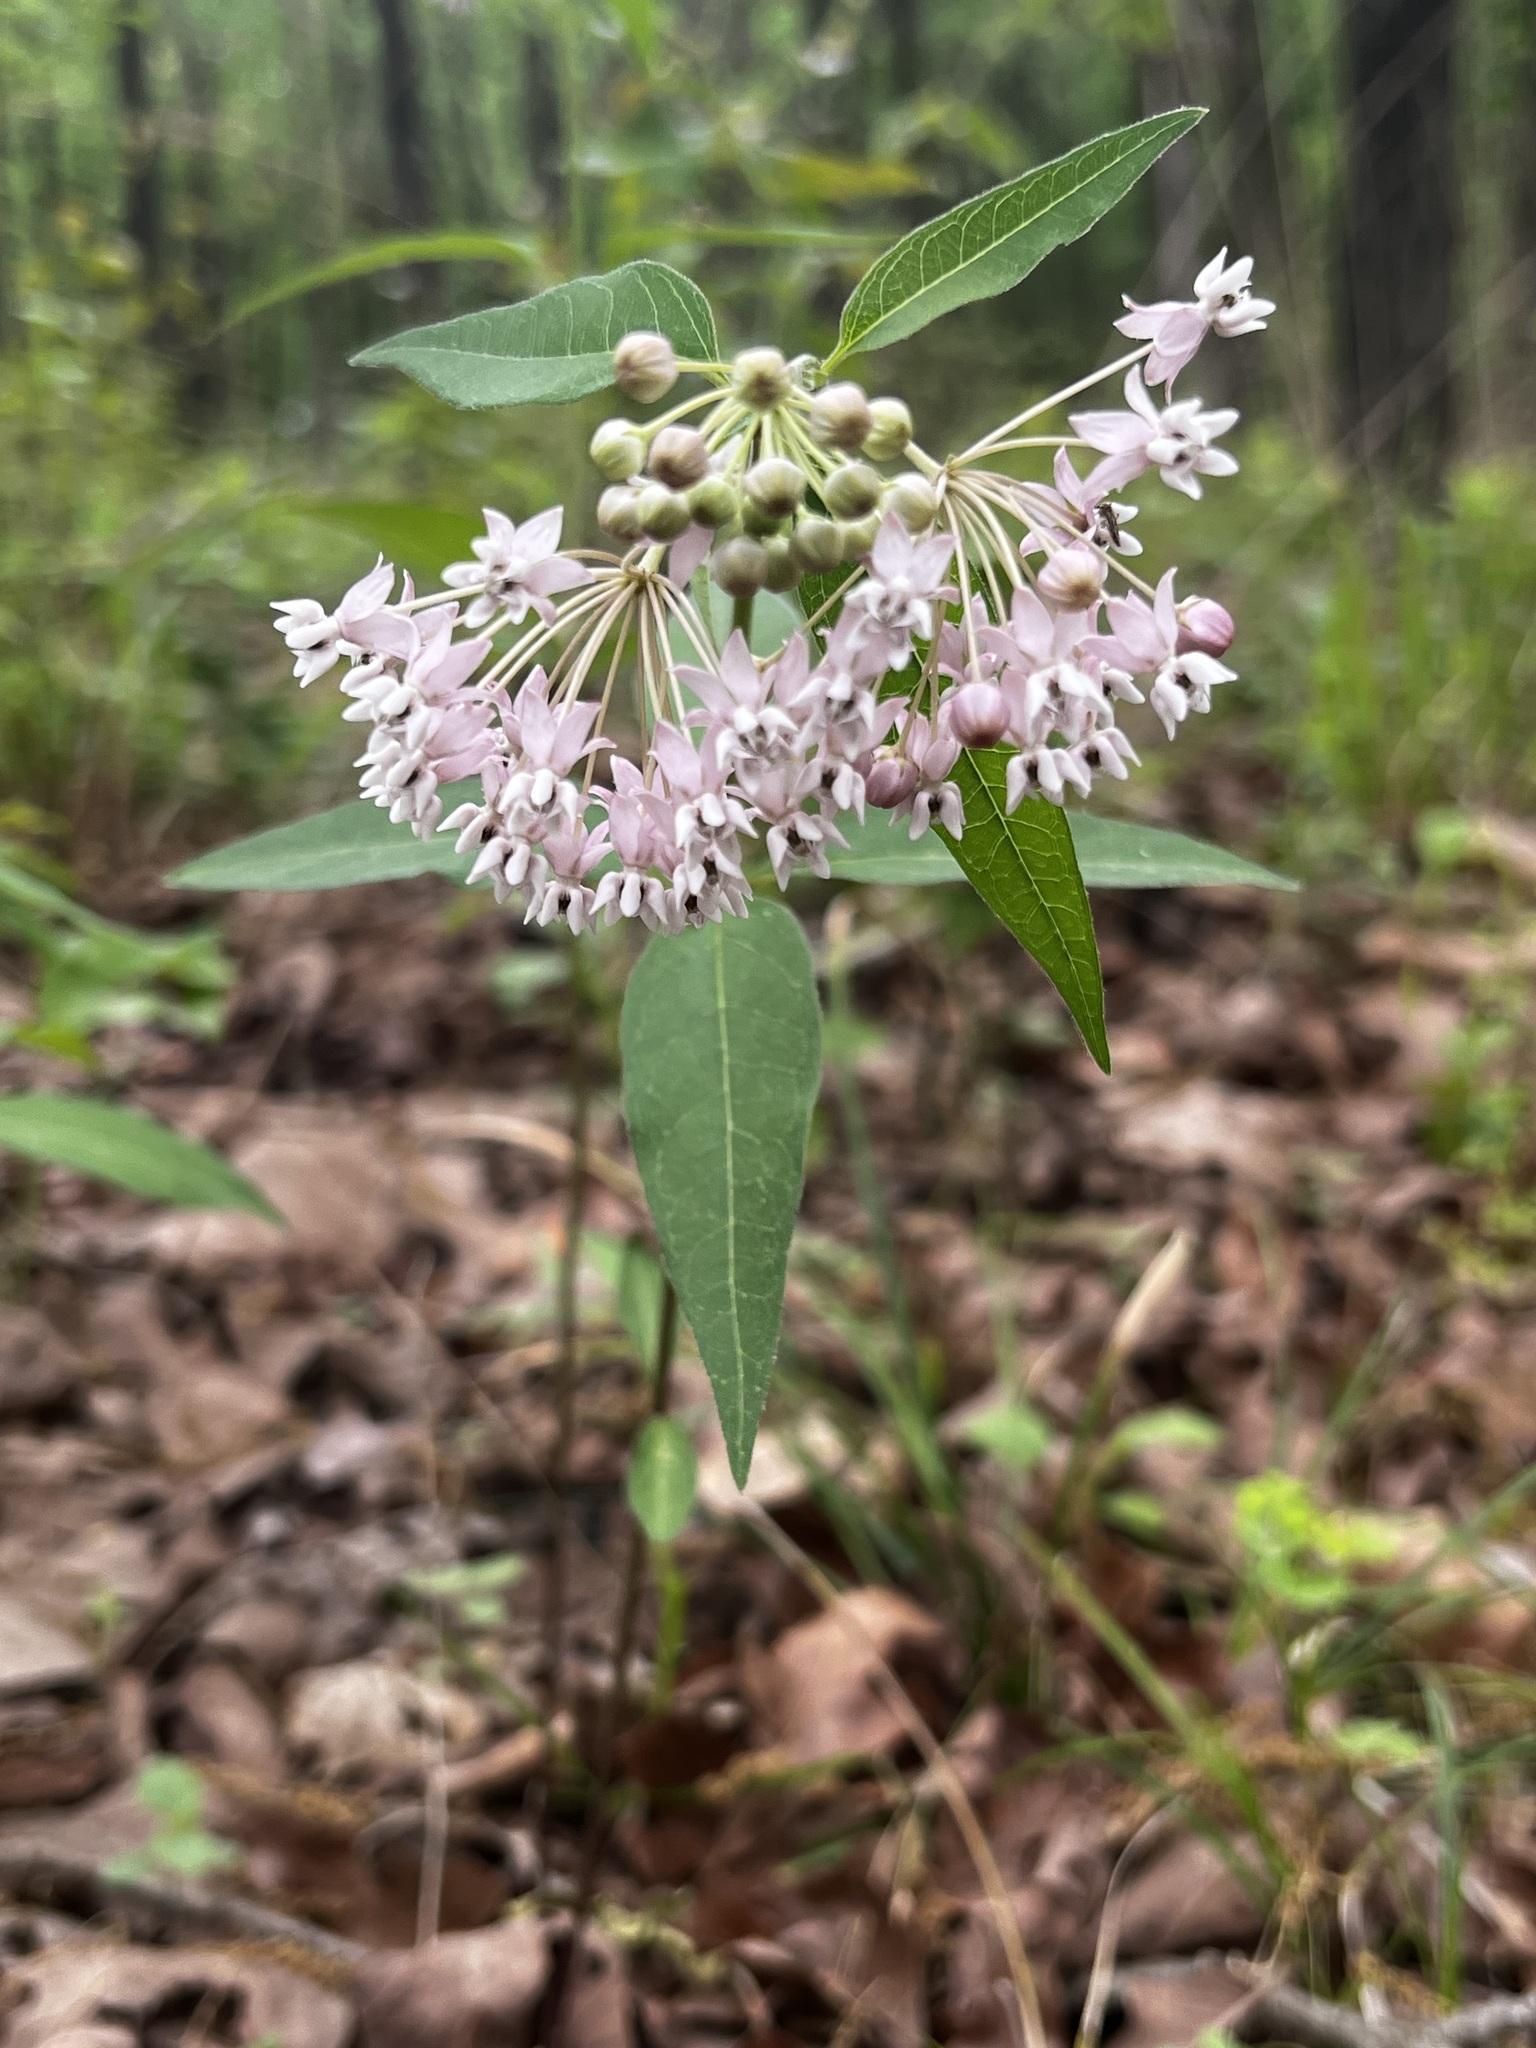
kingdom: Plantae
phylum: Tracheophyta
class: Magnoliopsida
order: Gentianales
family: Apocynaceae
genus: Asclepias
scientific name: Asclepias quadrifolia
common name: Whorled milkweed
